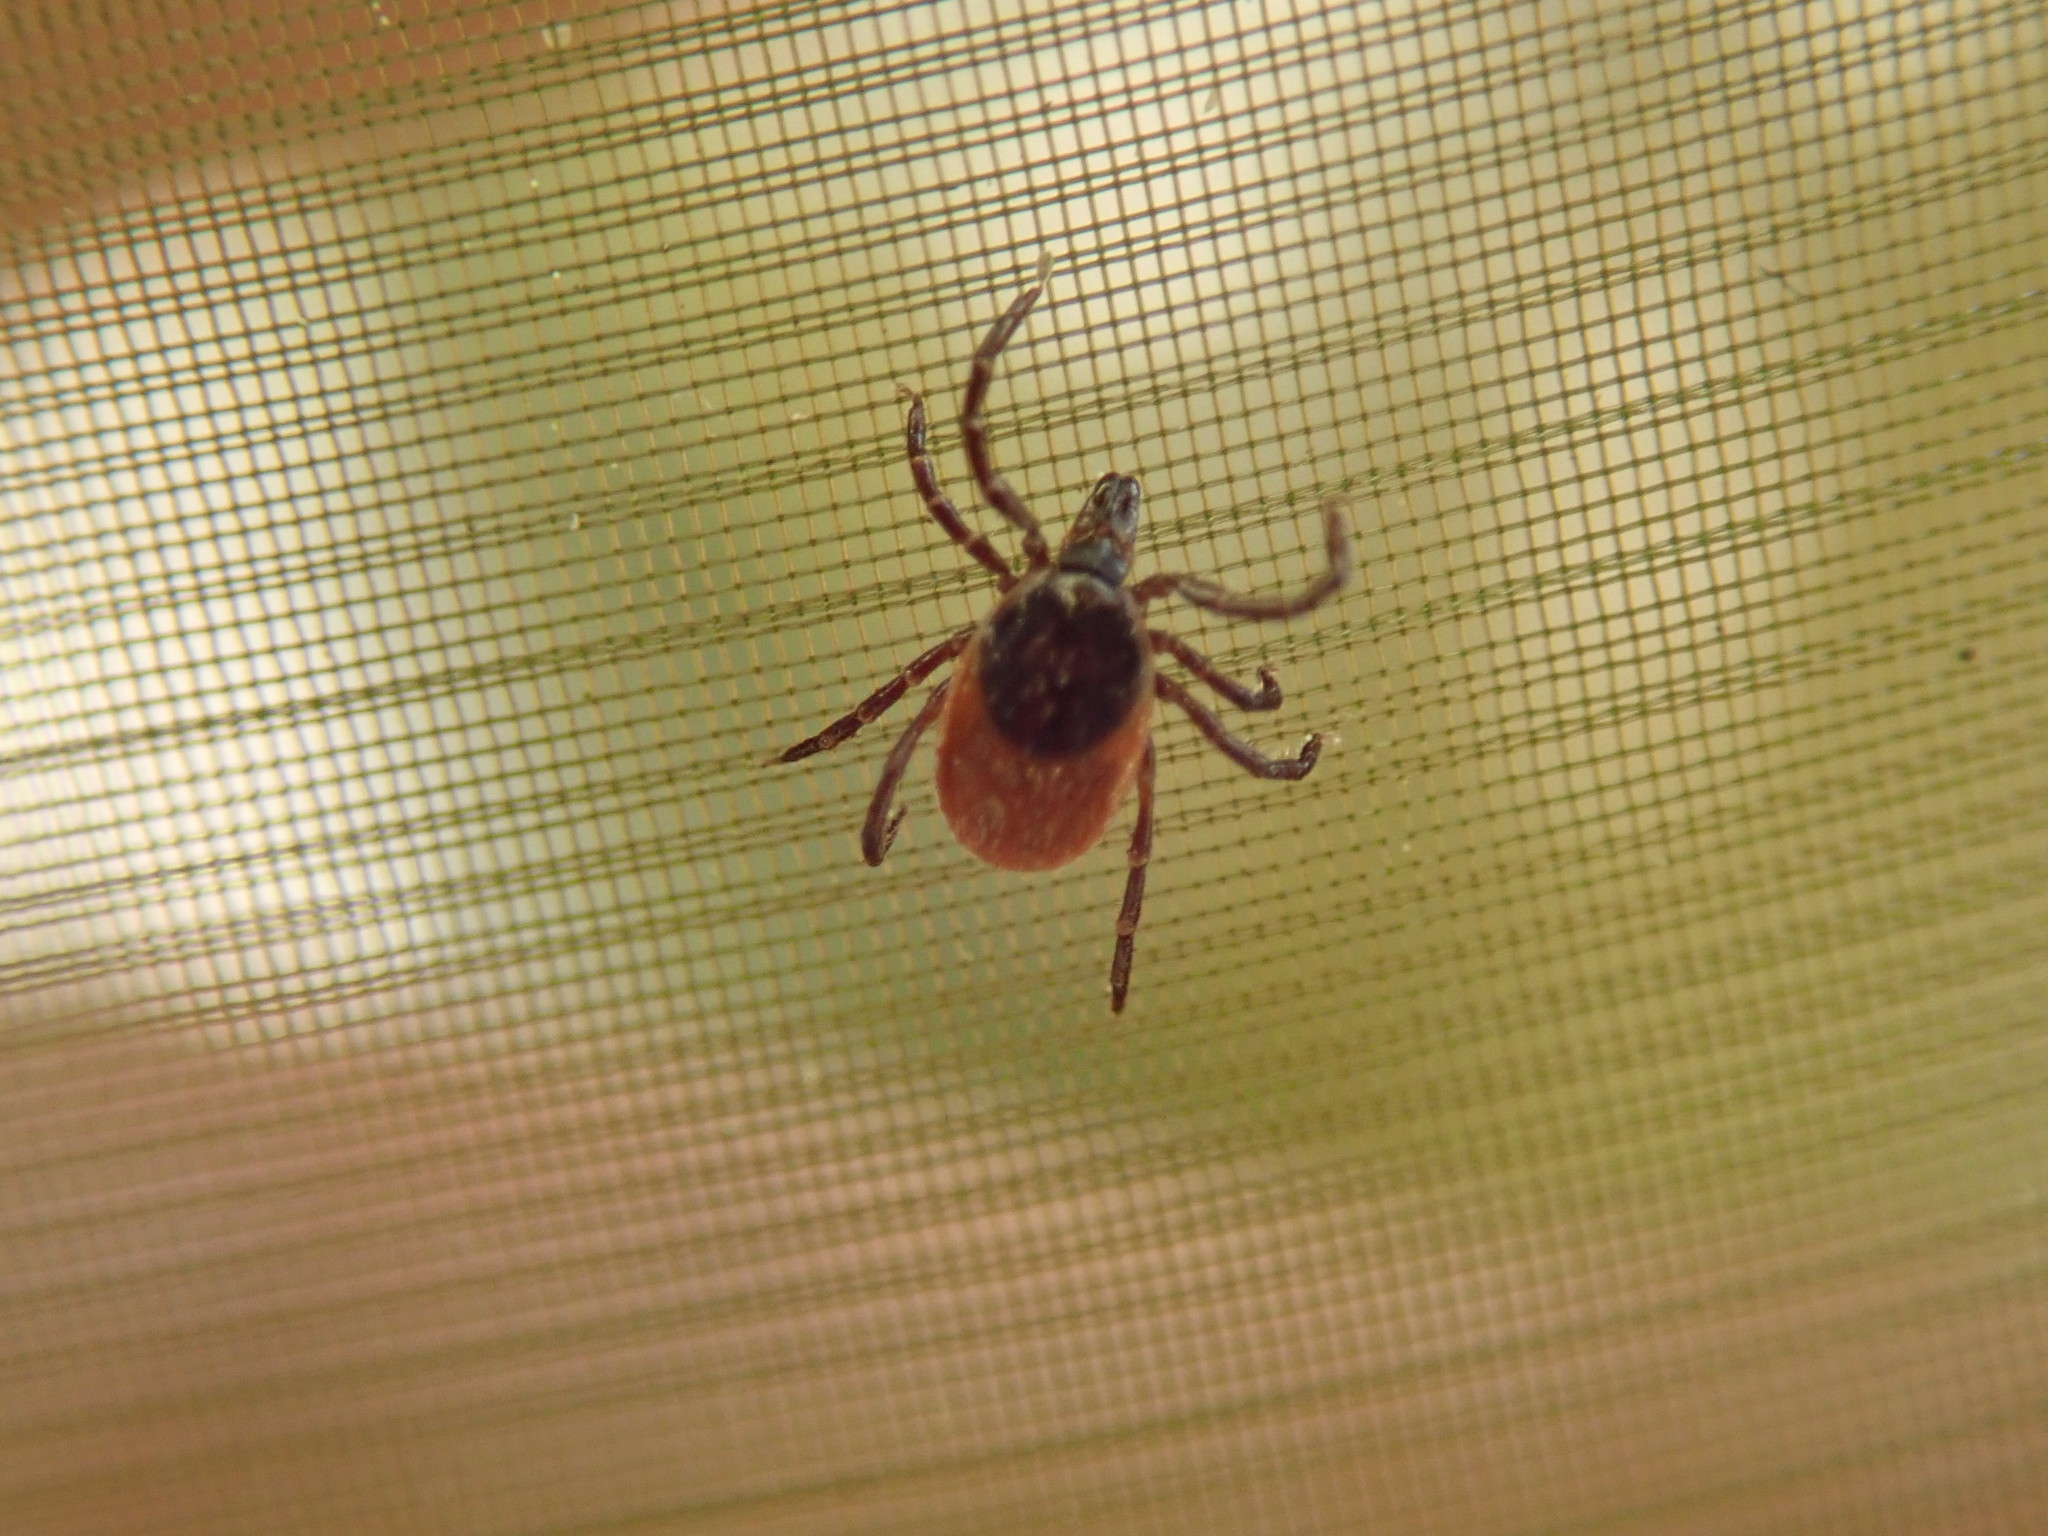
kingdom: Animalia
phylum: Arthropoda
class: Arachnida
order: Ixodida
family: Ixodidae
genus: Ixodes
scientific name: Ixodes ricinus
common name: Castor bean tick
